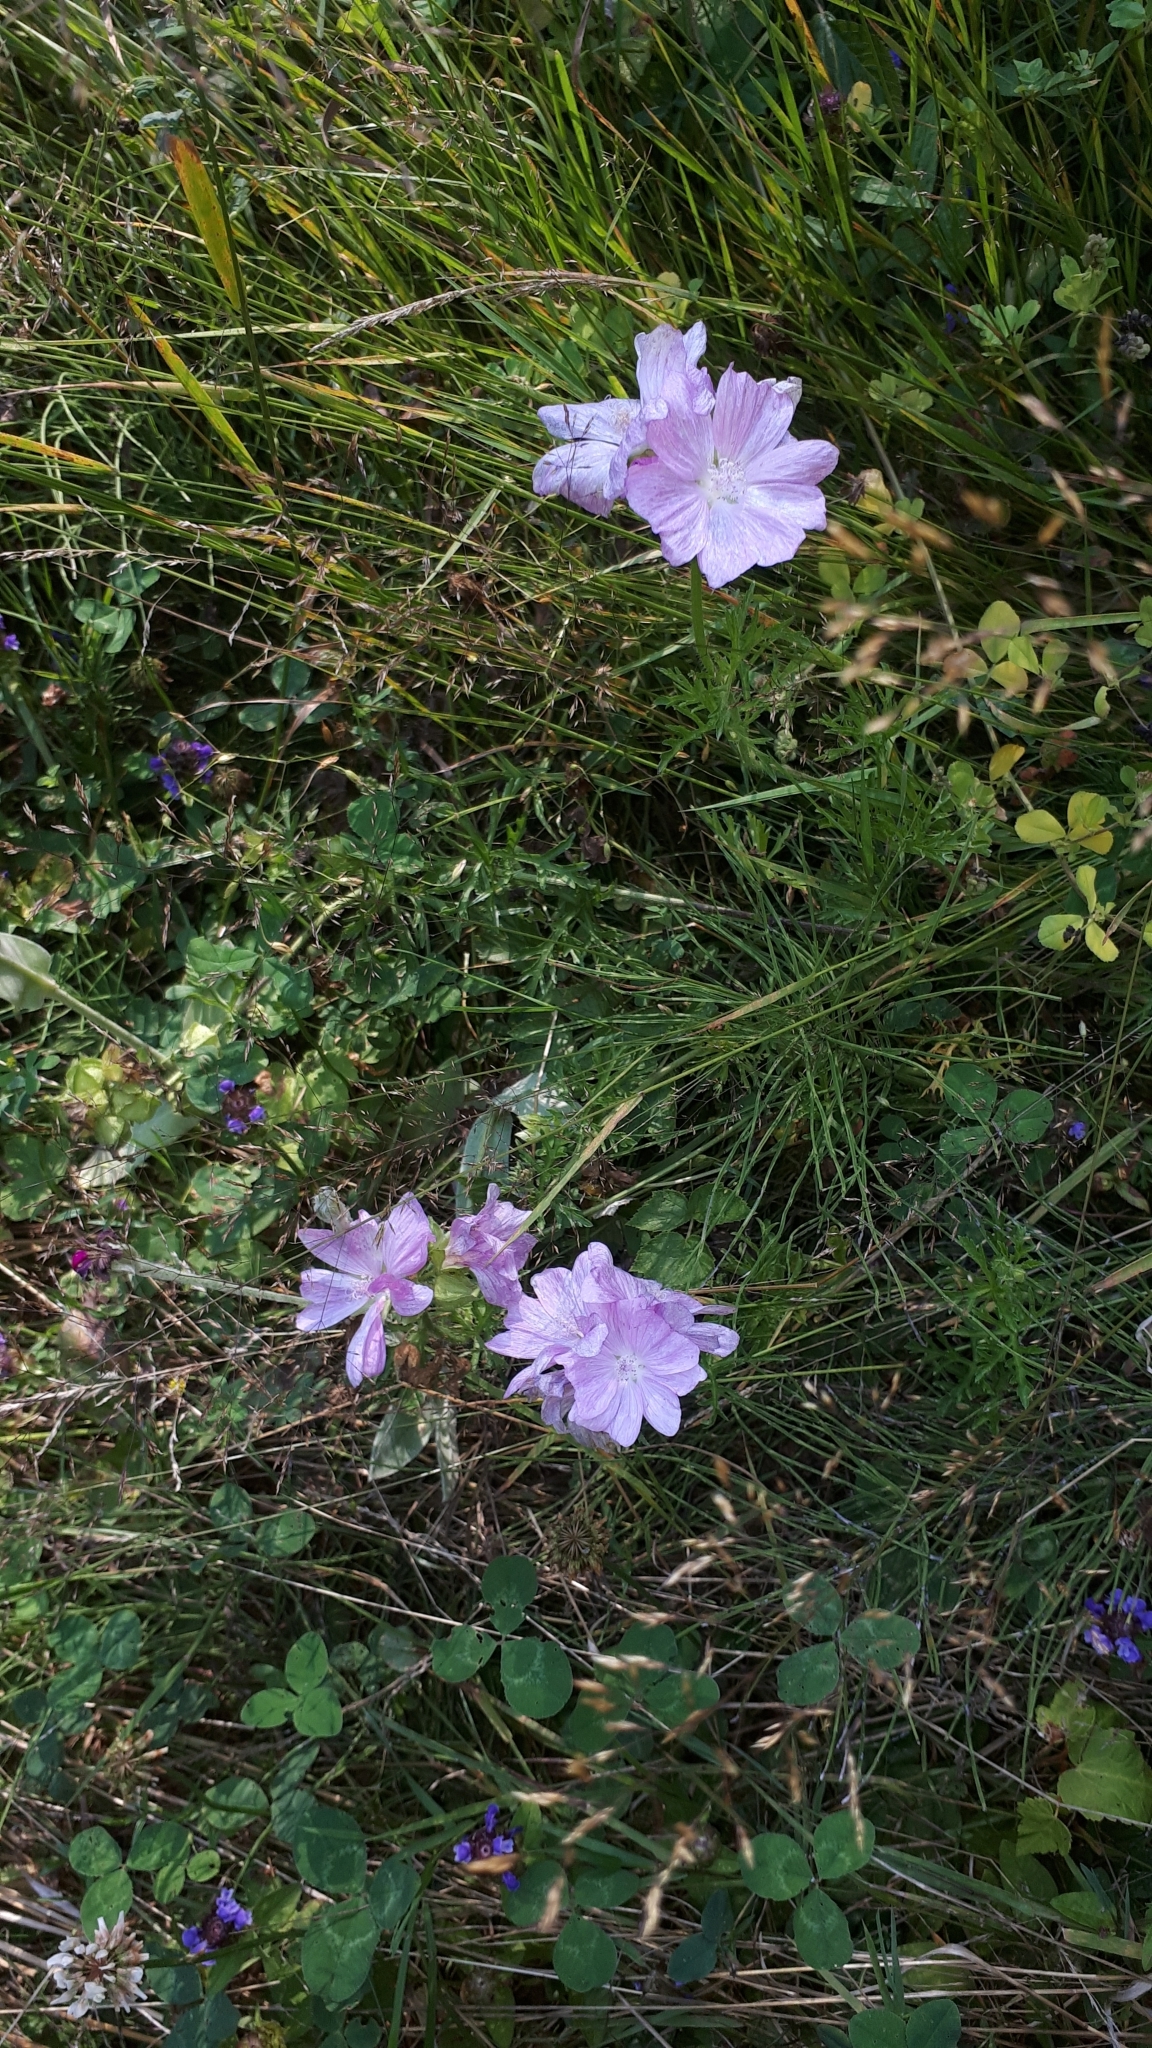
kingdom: Plantae
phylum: Tracheophyta
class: Magnoliopsida
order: Malvales
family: Malvaceae
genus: Malva
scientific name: Malva moschata
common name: Musk mallow
